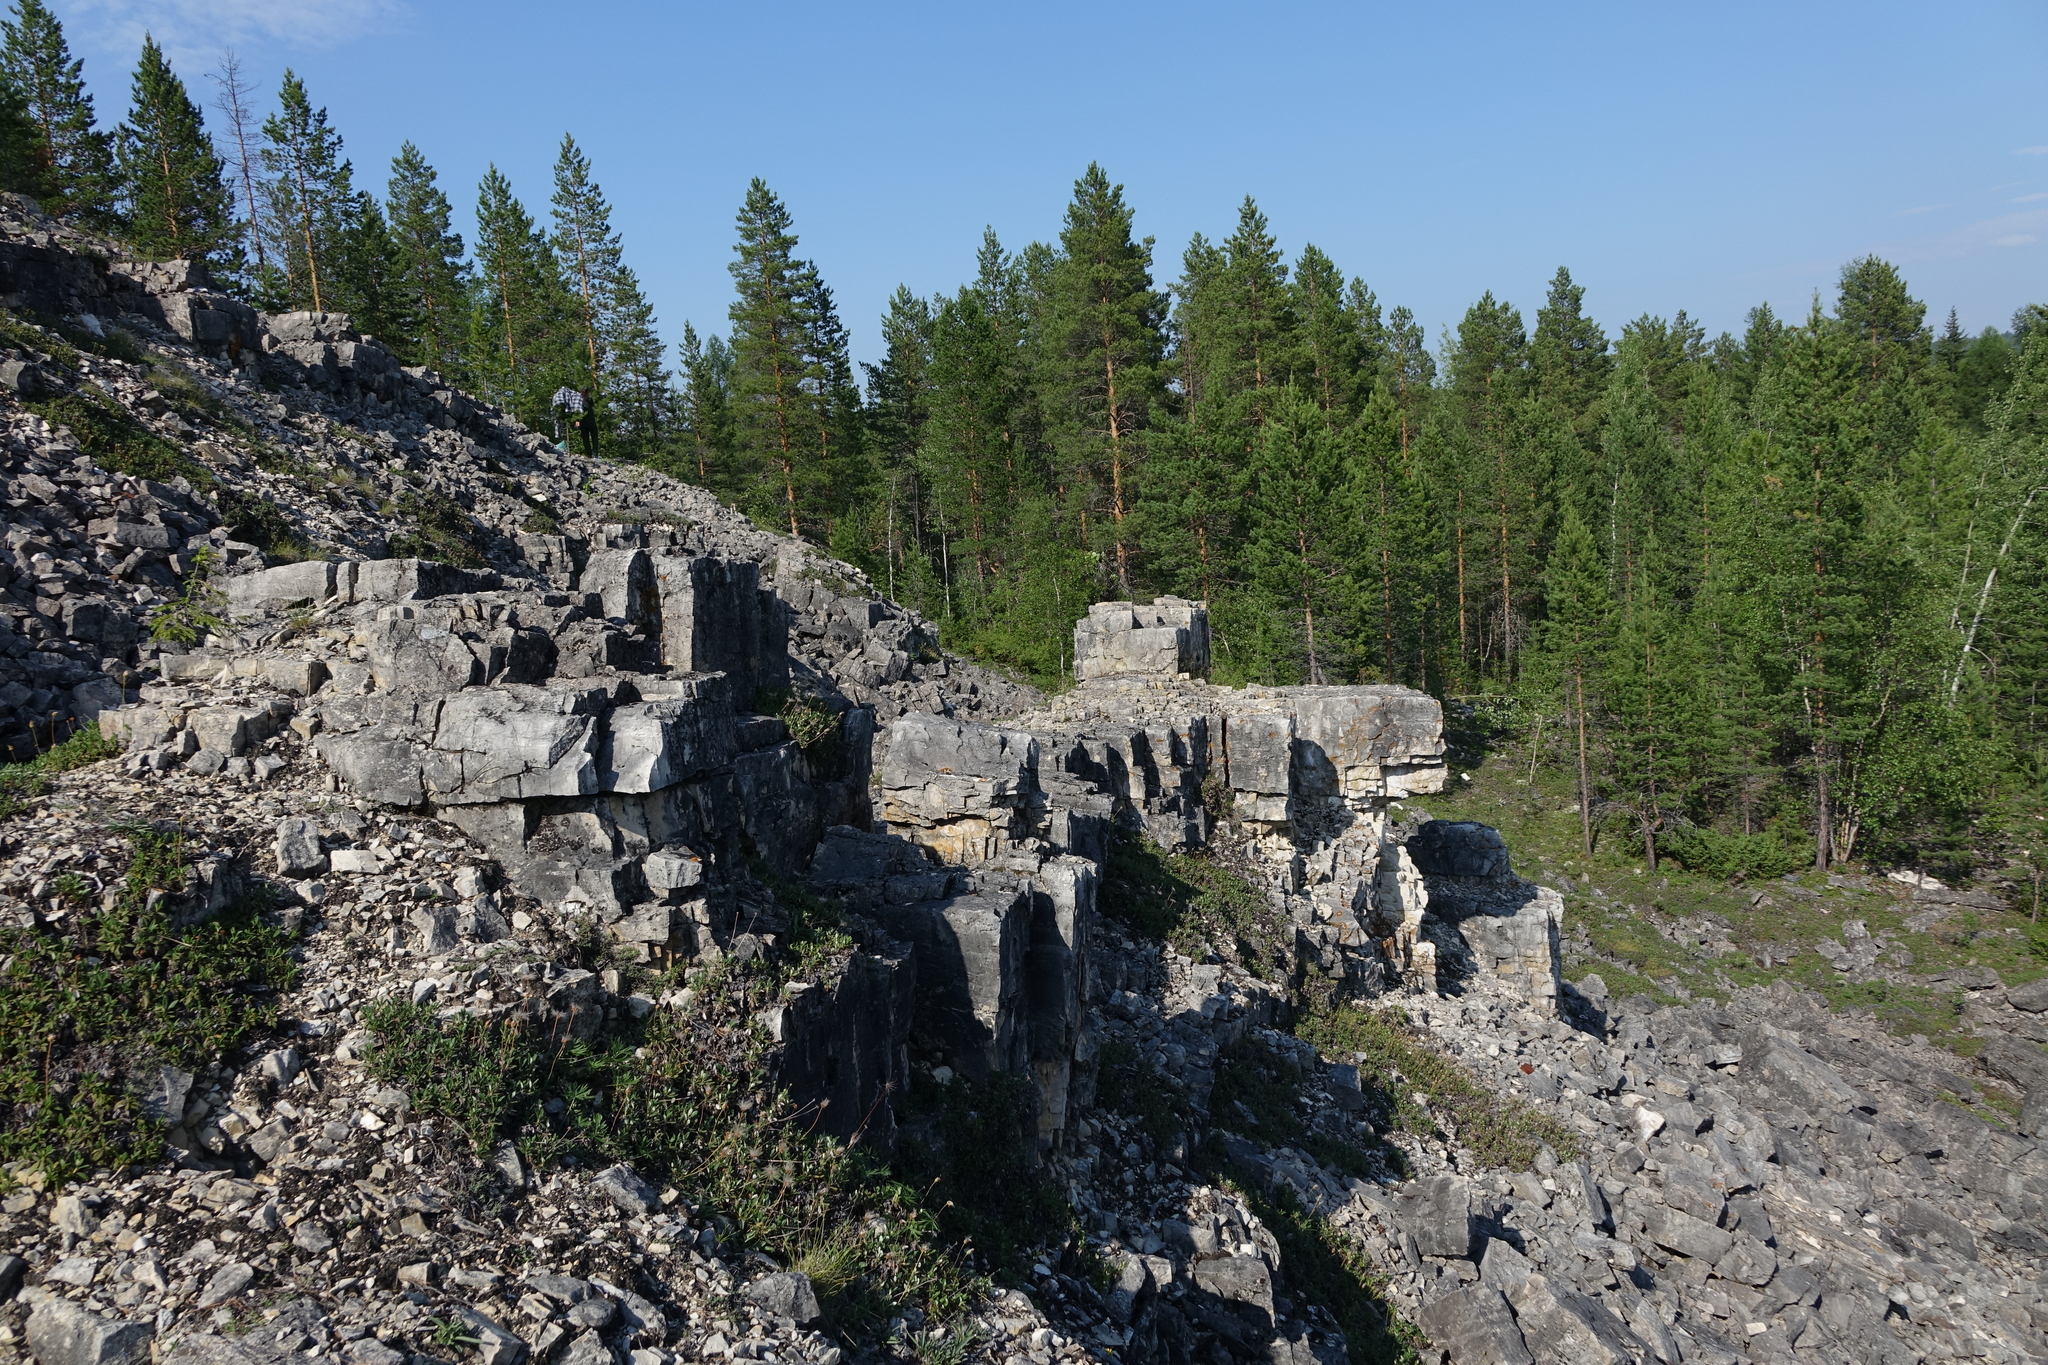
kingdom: Plantae
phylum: Tracheophyta
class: Pinopsida
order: Pinales
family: Pinaceae
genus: Pinus
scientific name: Pinus sylvestris
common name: Scots pine
